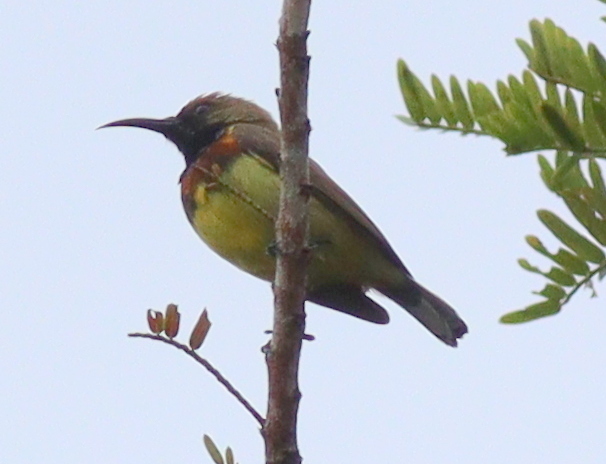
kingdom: Animalia
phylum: Chordata
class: Aves
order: Passeriformes
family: Nectariniidae
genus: Cinnyris
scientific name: Cinnyris
